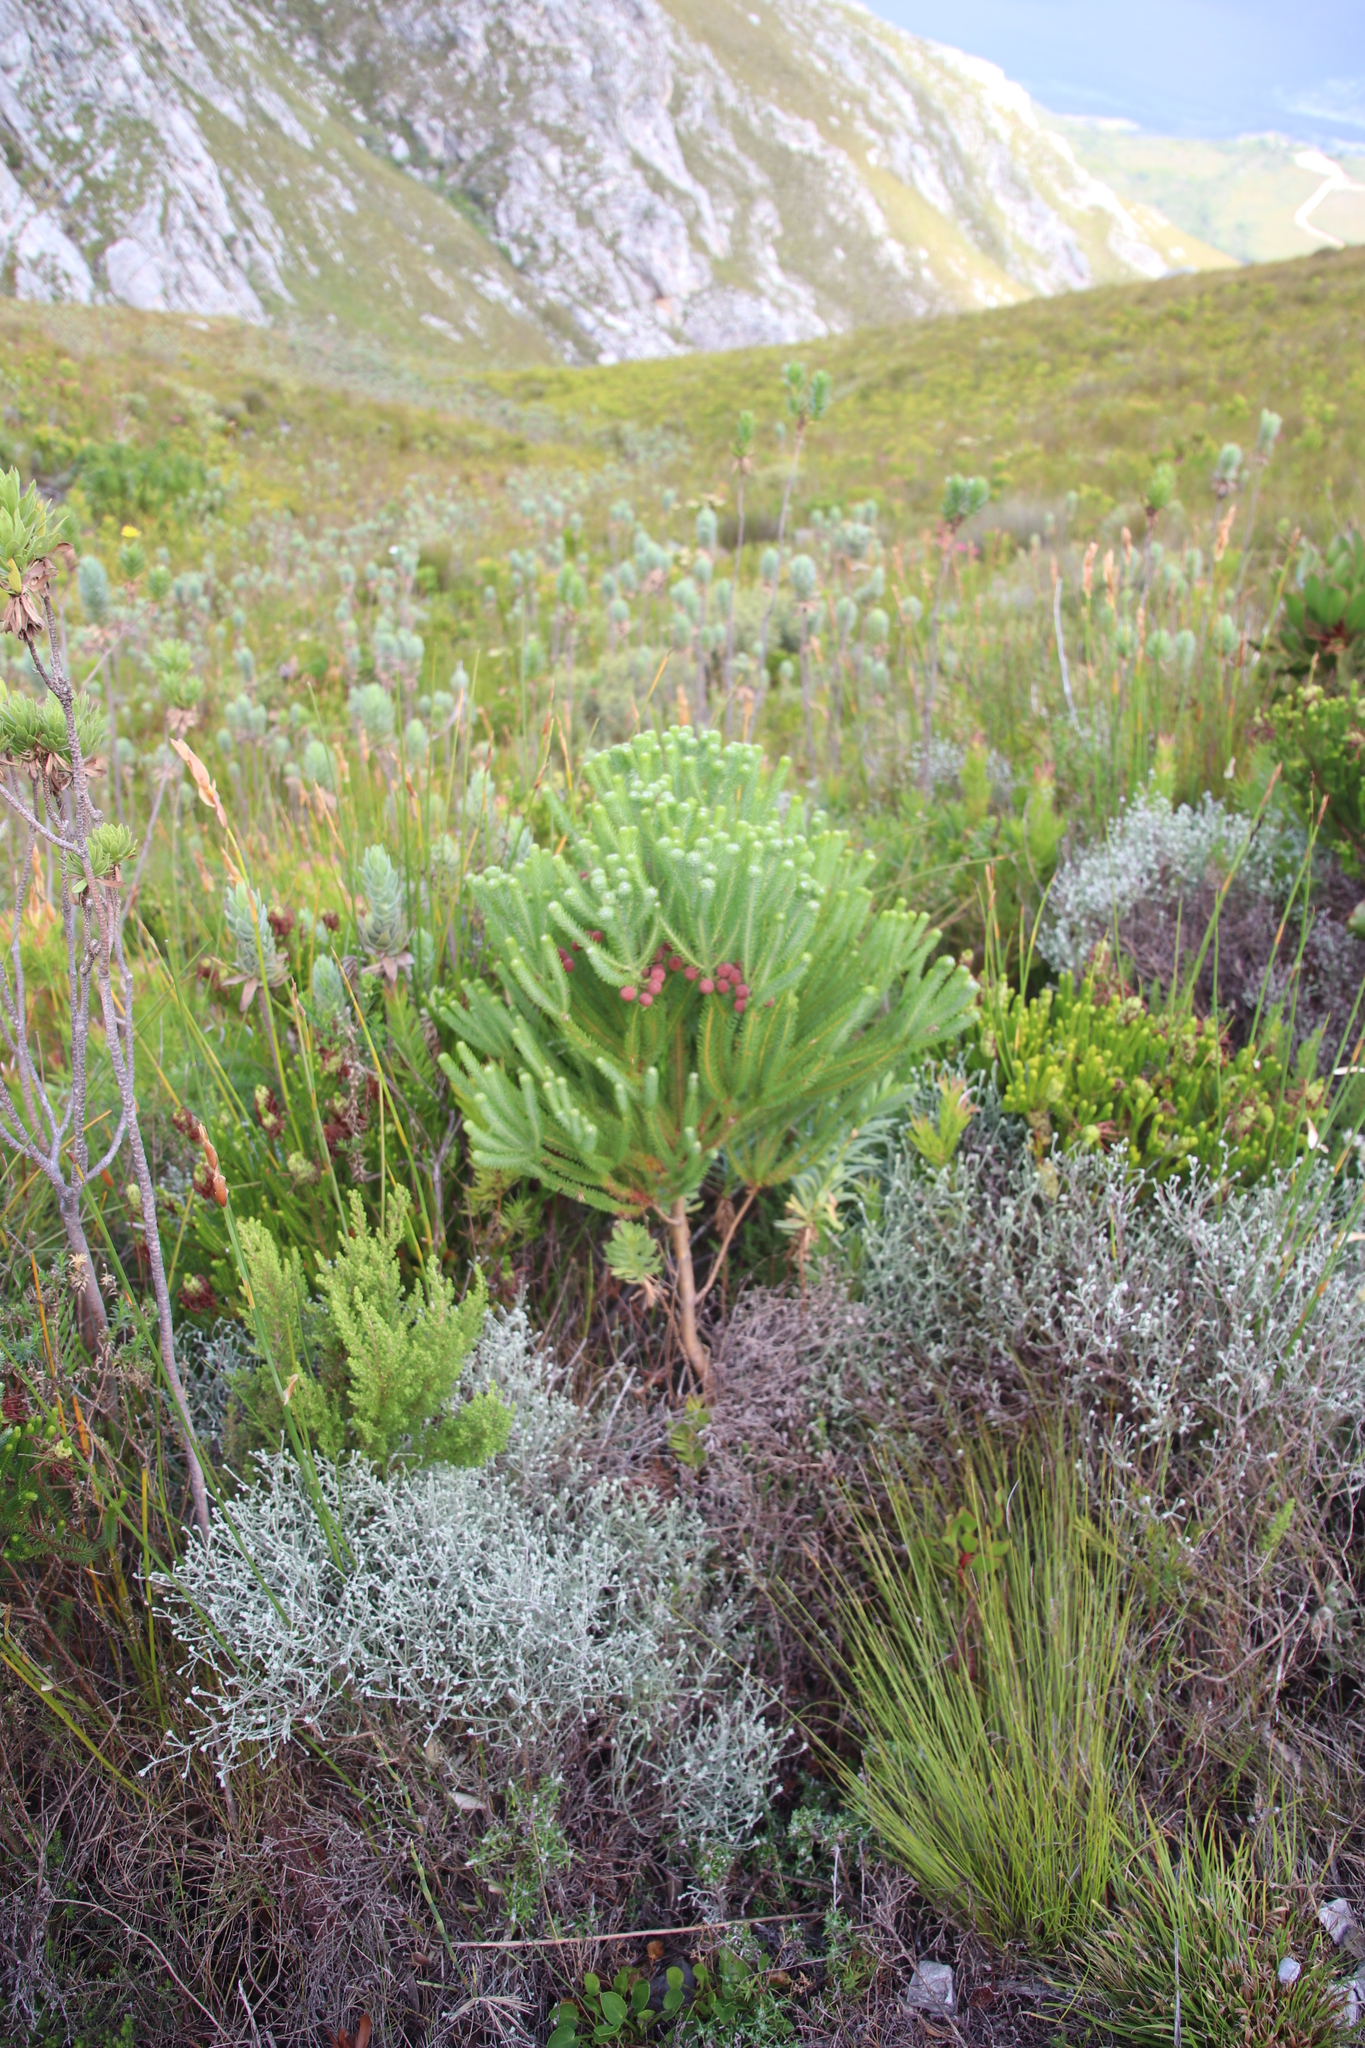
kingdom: Plantae
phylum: Tracheophyta
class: Magnoliopsida
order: Bruniales
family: Bruniaceae
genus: Berzelia
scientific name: Berzelia squarrosa
